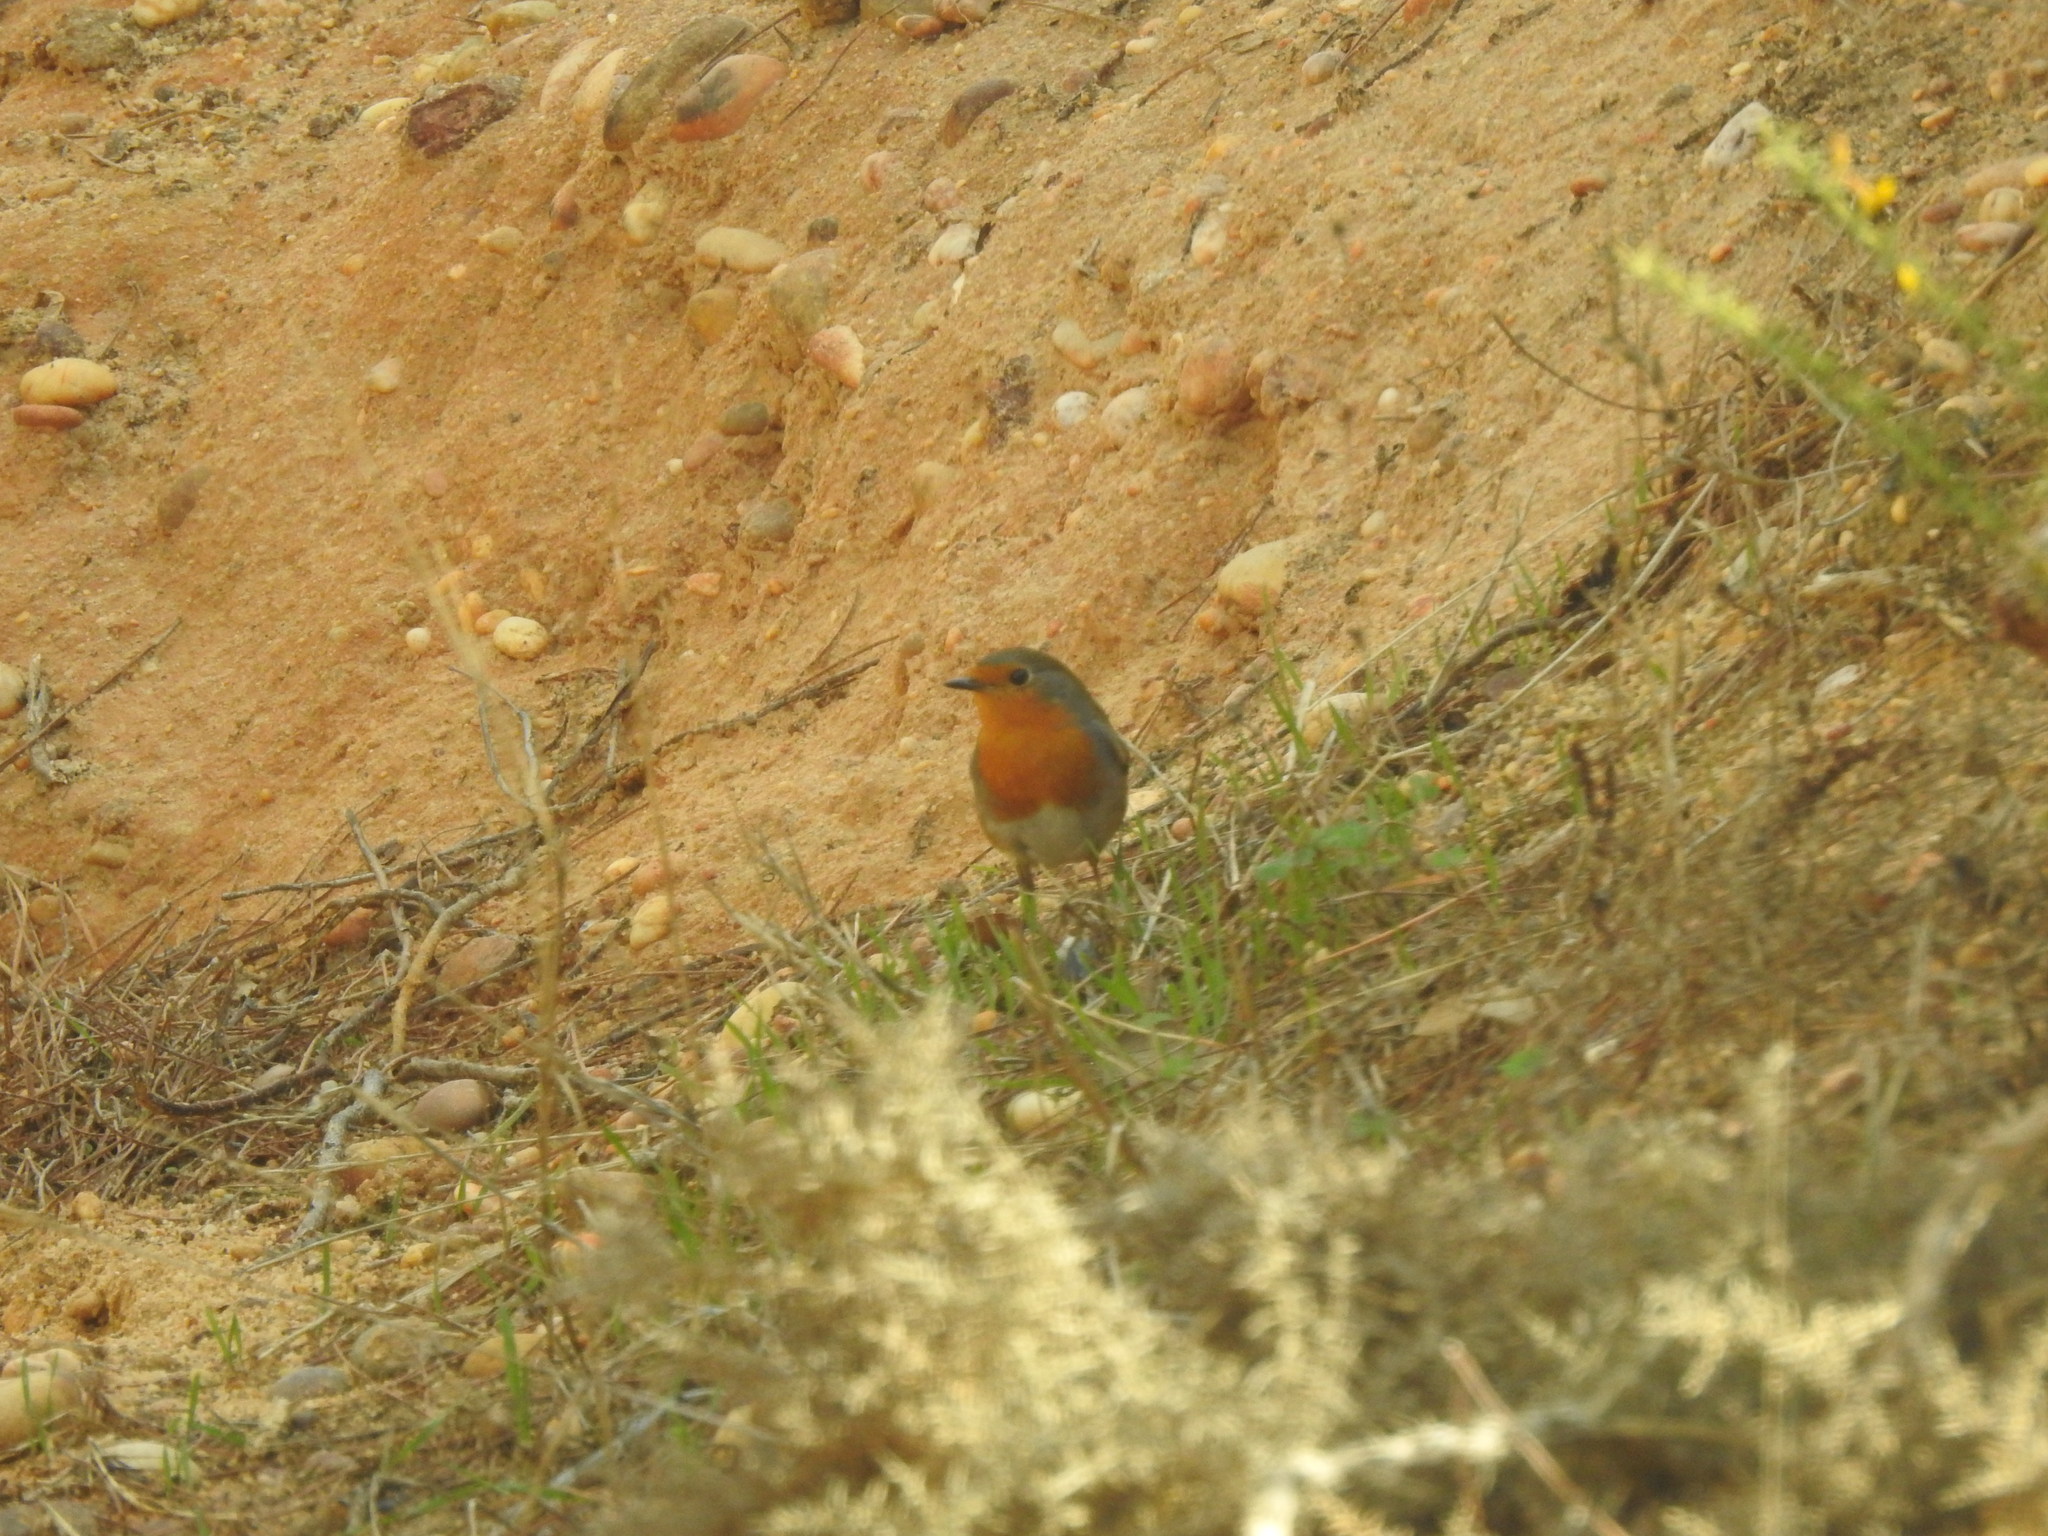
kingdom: Animalia
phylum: Chordata
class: Aves
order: Passeriformes
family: Muscicapidae
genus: Erithacus
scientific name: Erithacus rubecula
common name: European robin
